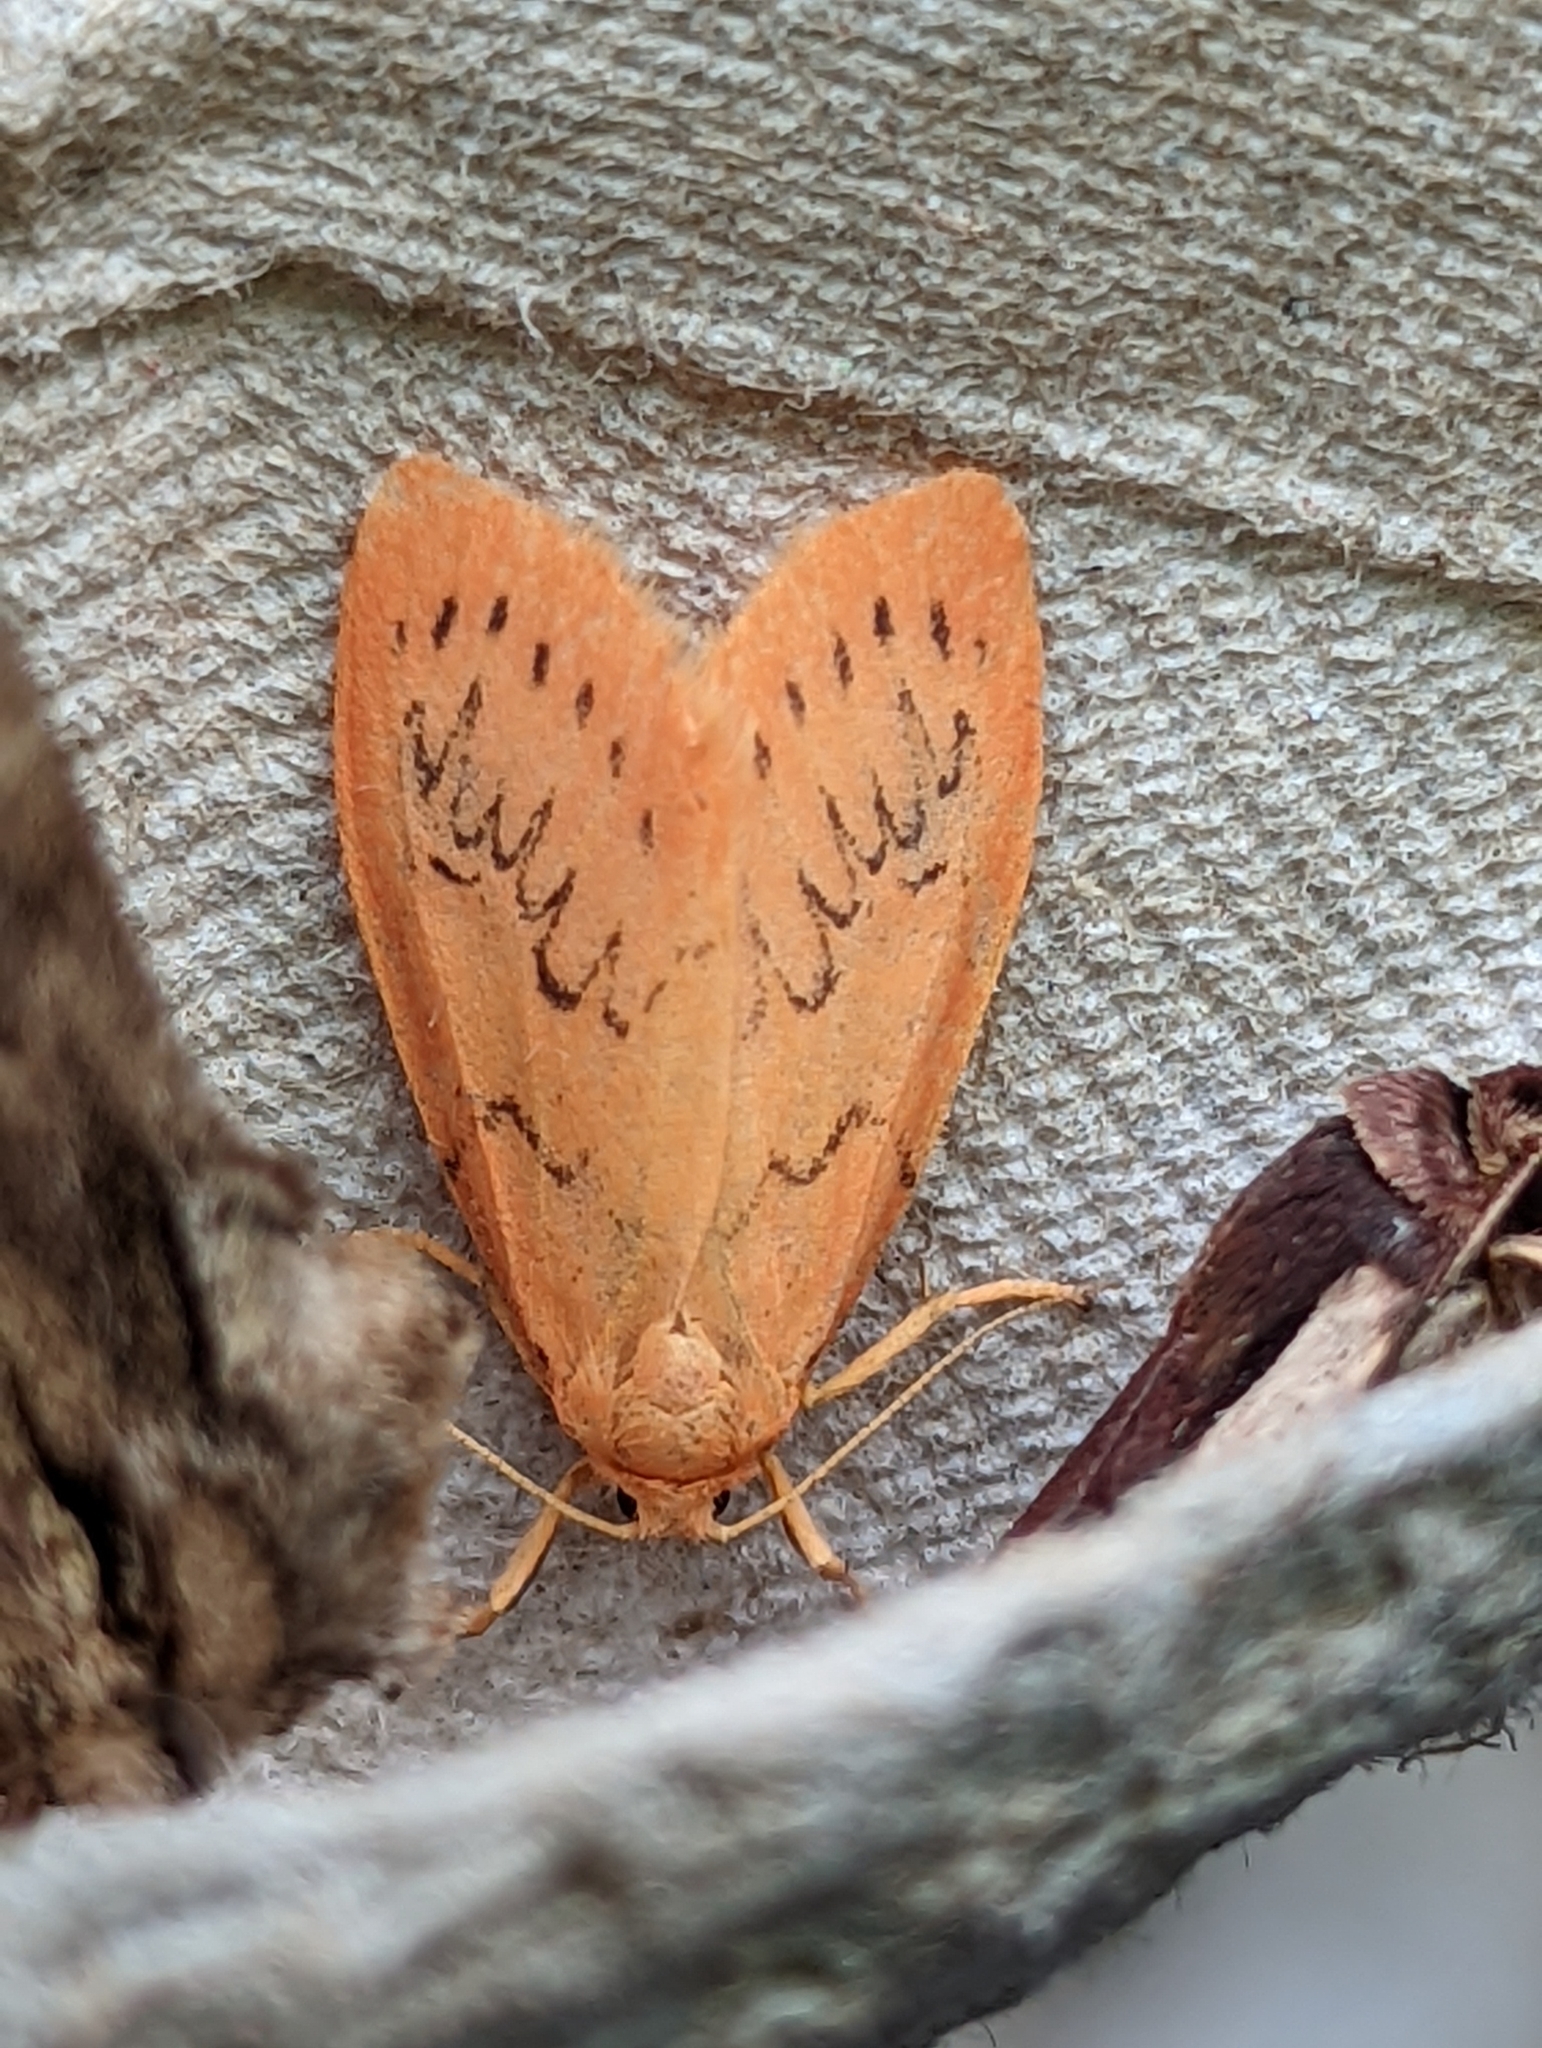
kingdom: Animalia
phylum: Arthropoda
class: Insecta
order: Lepidoptera
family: Erebidae
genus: Miltochrista
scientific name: Miltochrista miniata
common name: Rosy footman
